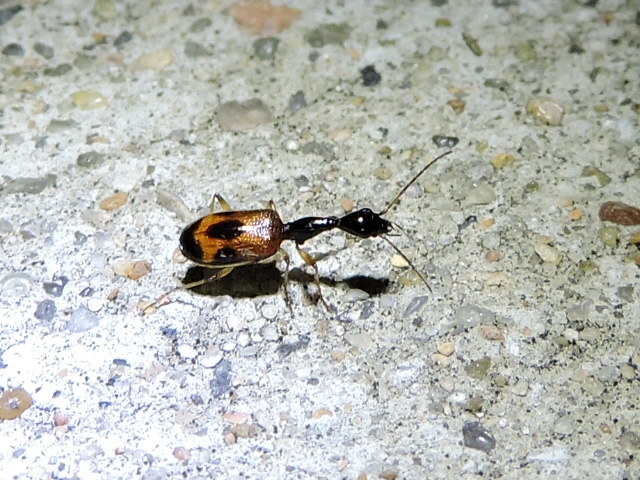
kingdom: Animalia
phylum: Arthropoda
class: Insecta
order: Coleoptera
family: Carabidae
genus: Colliuris
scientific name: Colliuris pensylvanica
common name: Long-necked ground beetle
